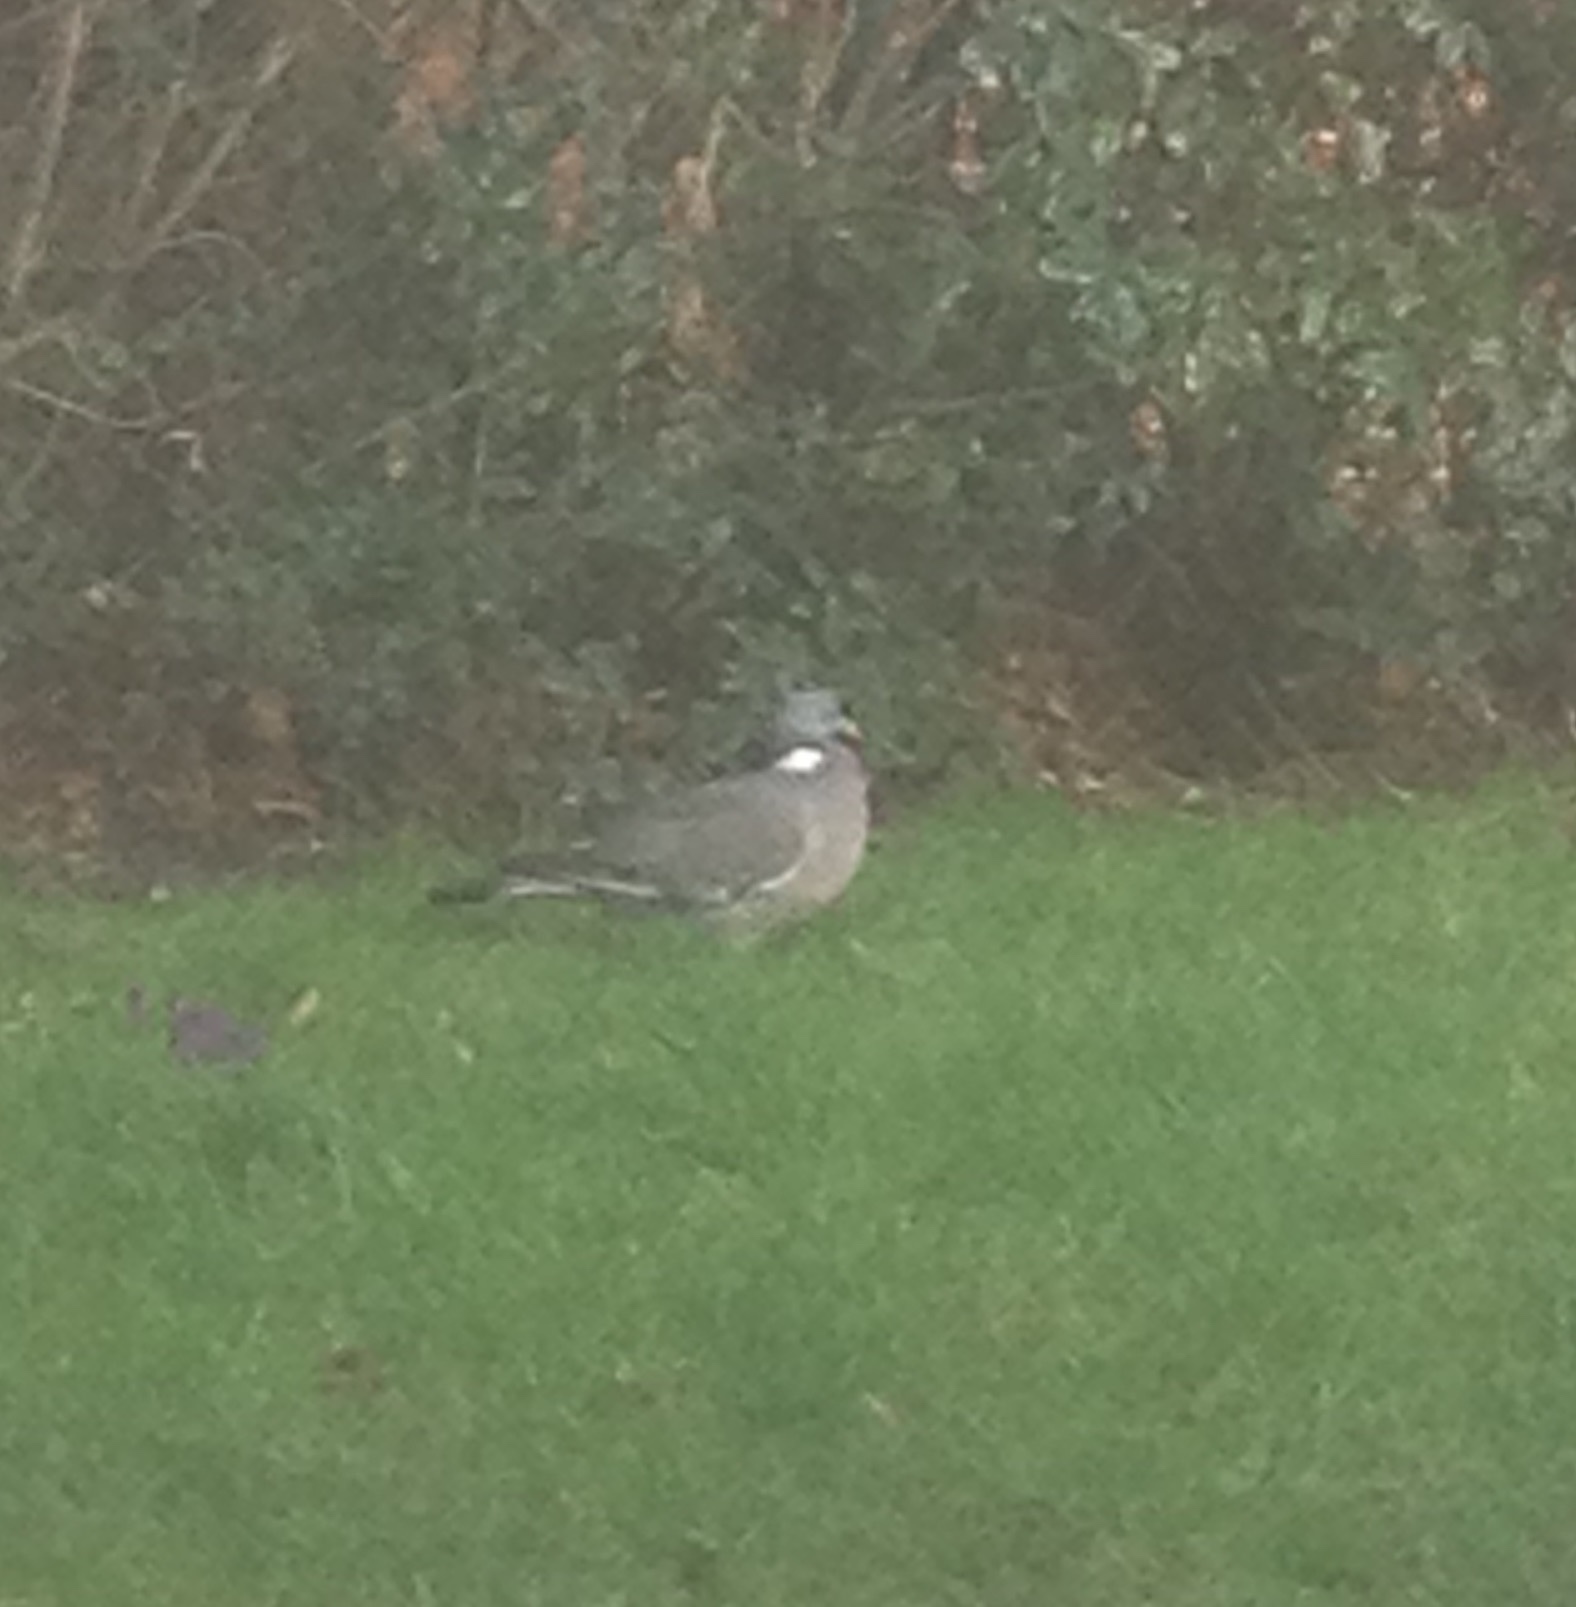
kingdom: Animalia
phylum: Chordata
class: Aves
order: Columbiformes
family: Columbidae
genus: Columba
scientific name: Columba palumbus
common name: Common wood pigeon
